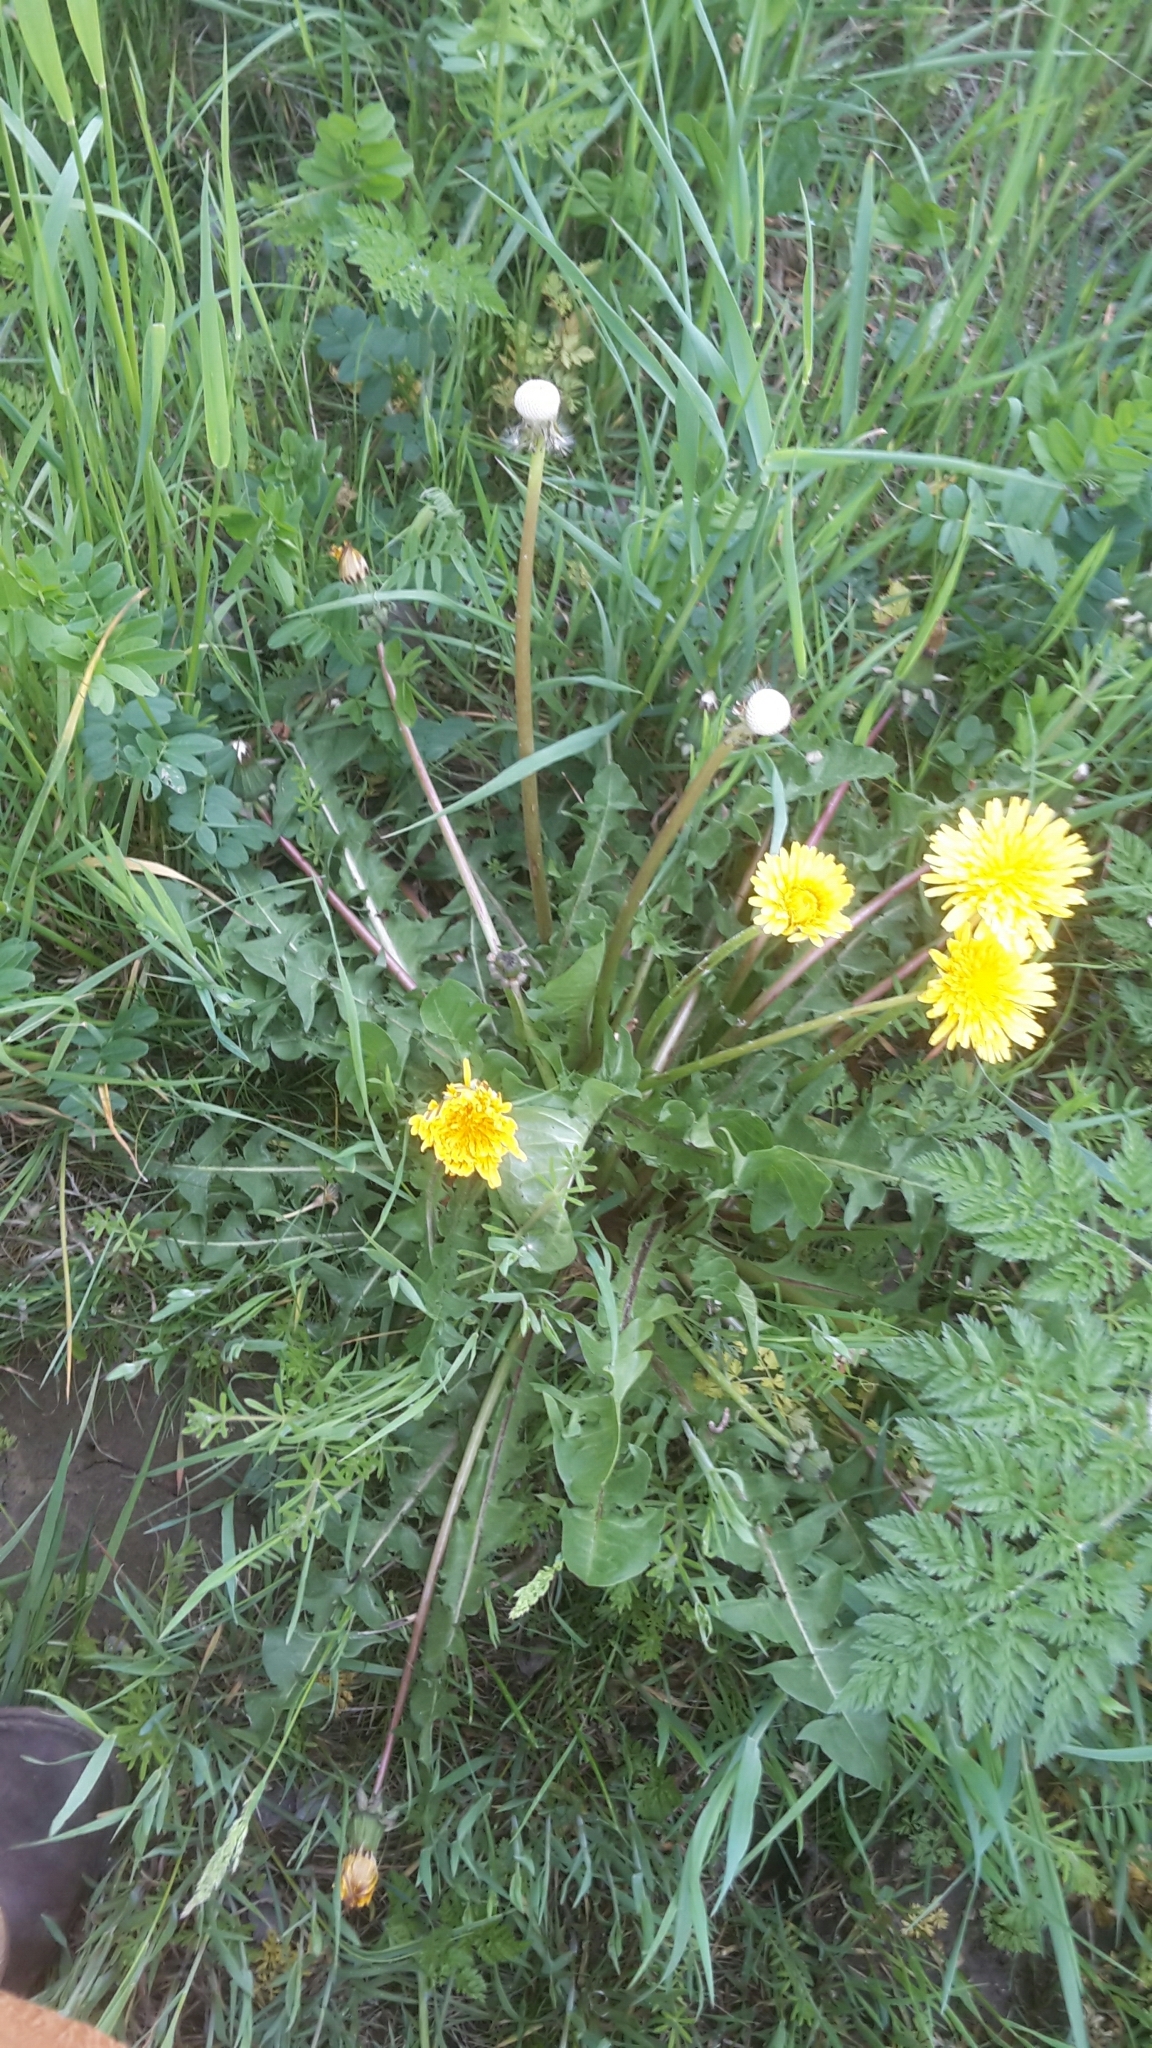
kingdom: Plantae
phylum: Tracheophyta
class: Magnoliopsida
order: Asterales
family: Asteraceae
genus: Taraxacum
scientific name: Taraxacum officinale
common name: Common dandelion
